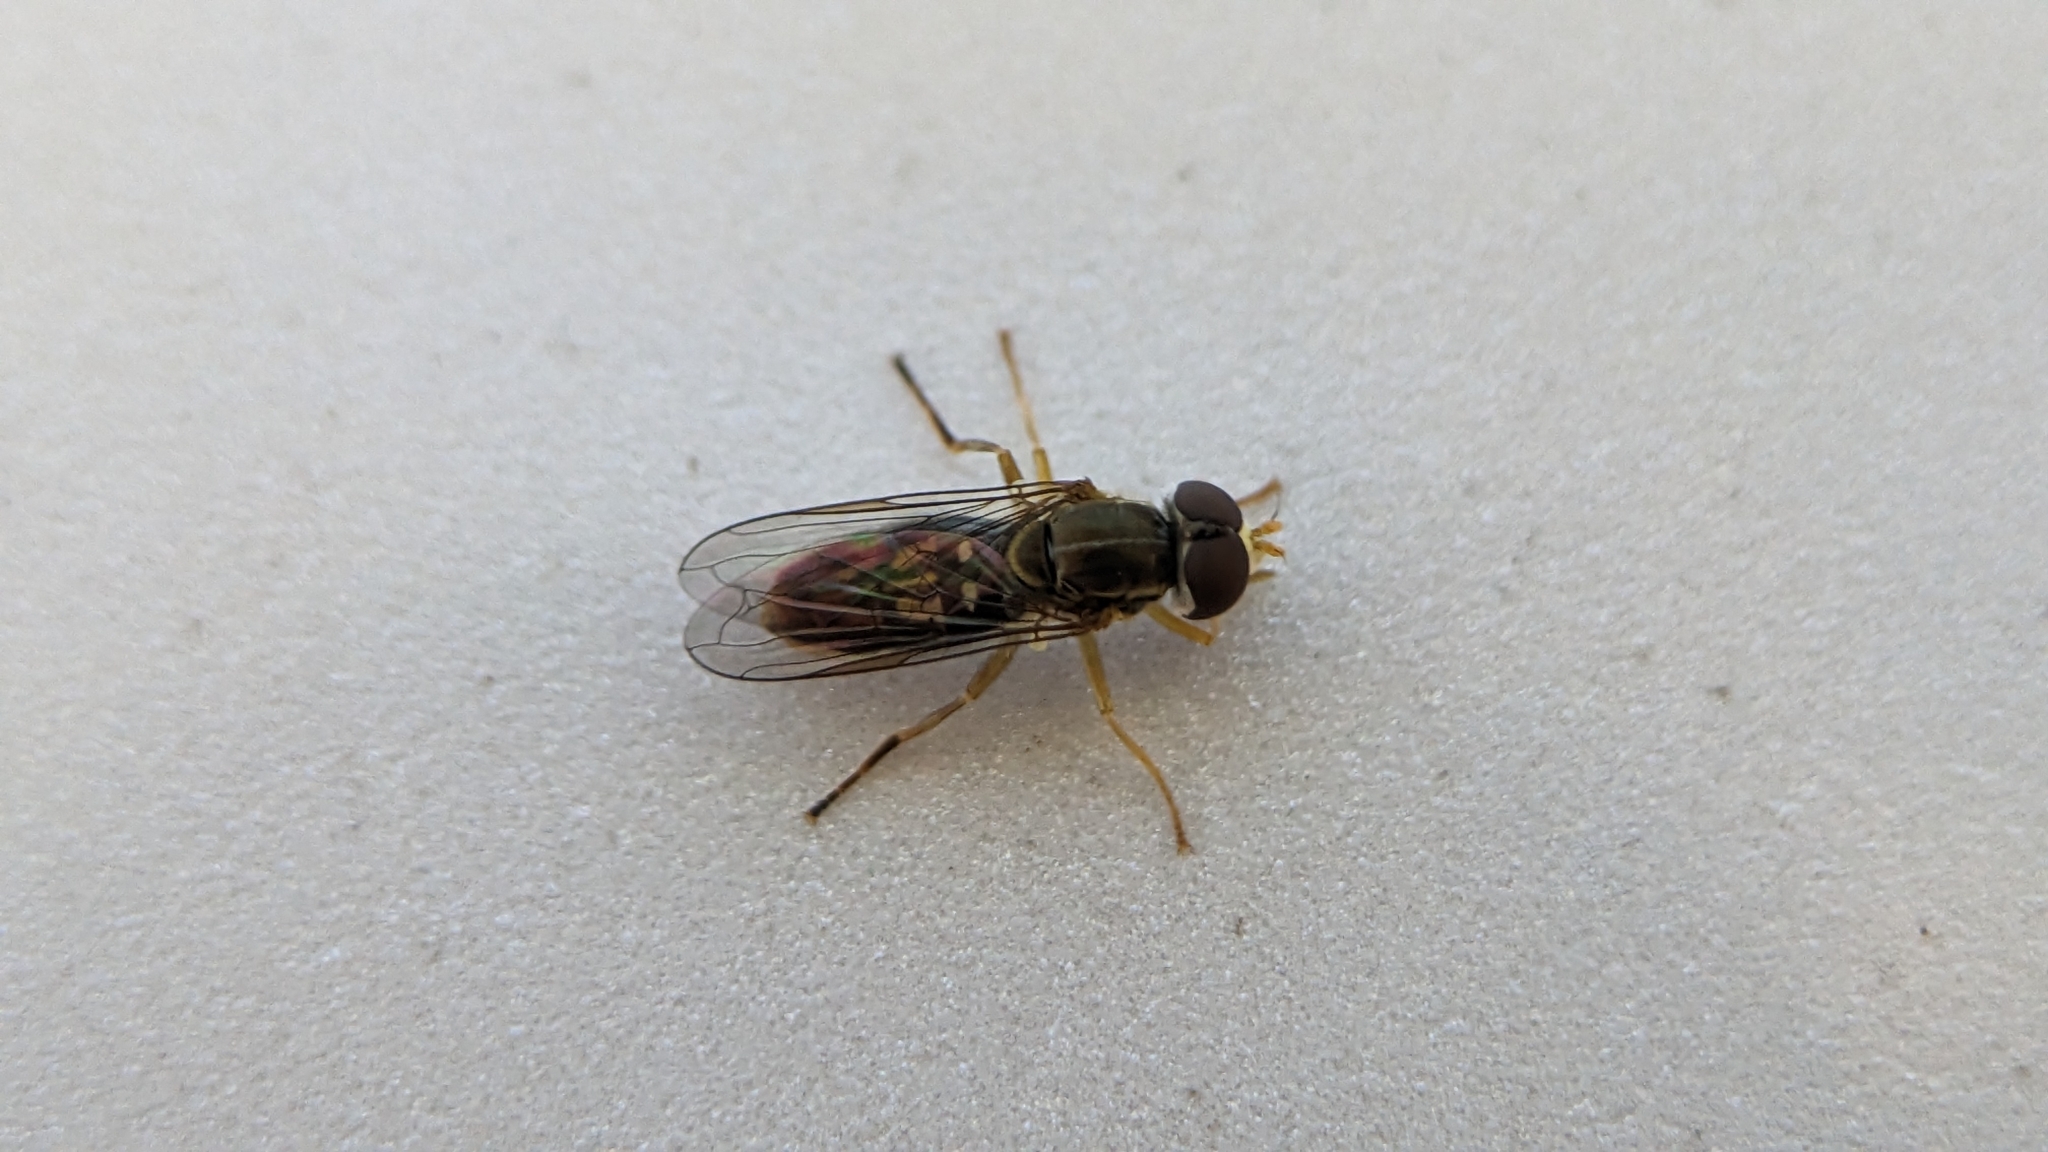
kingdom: Animalia
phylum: Arthropoda
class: Insecta
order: Diptera
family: Syrphidae
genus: Toxomerus
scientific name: Toxomerus marginatus
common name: Syrphid fly
